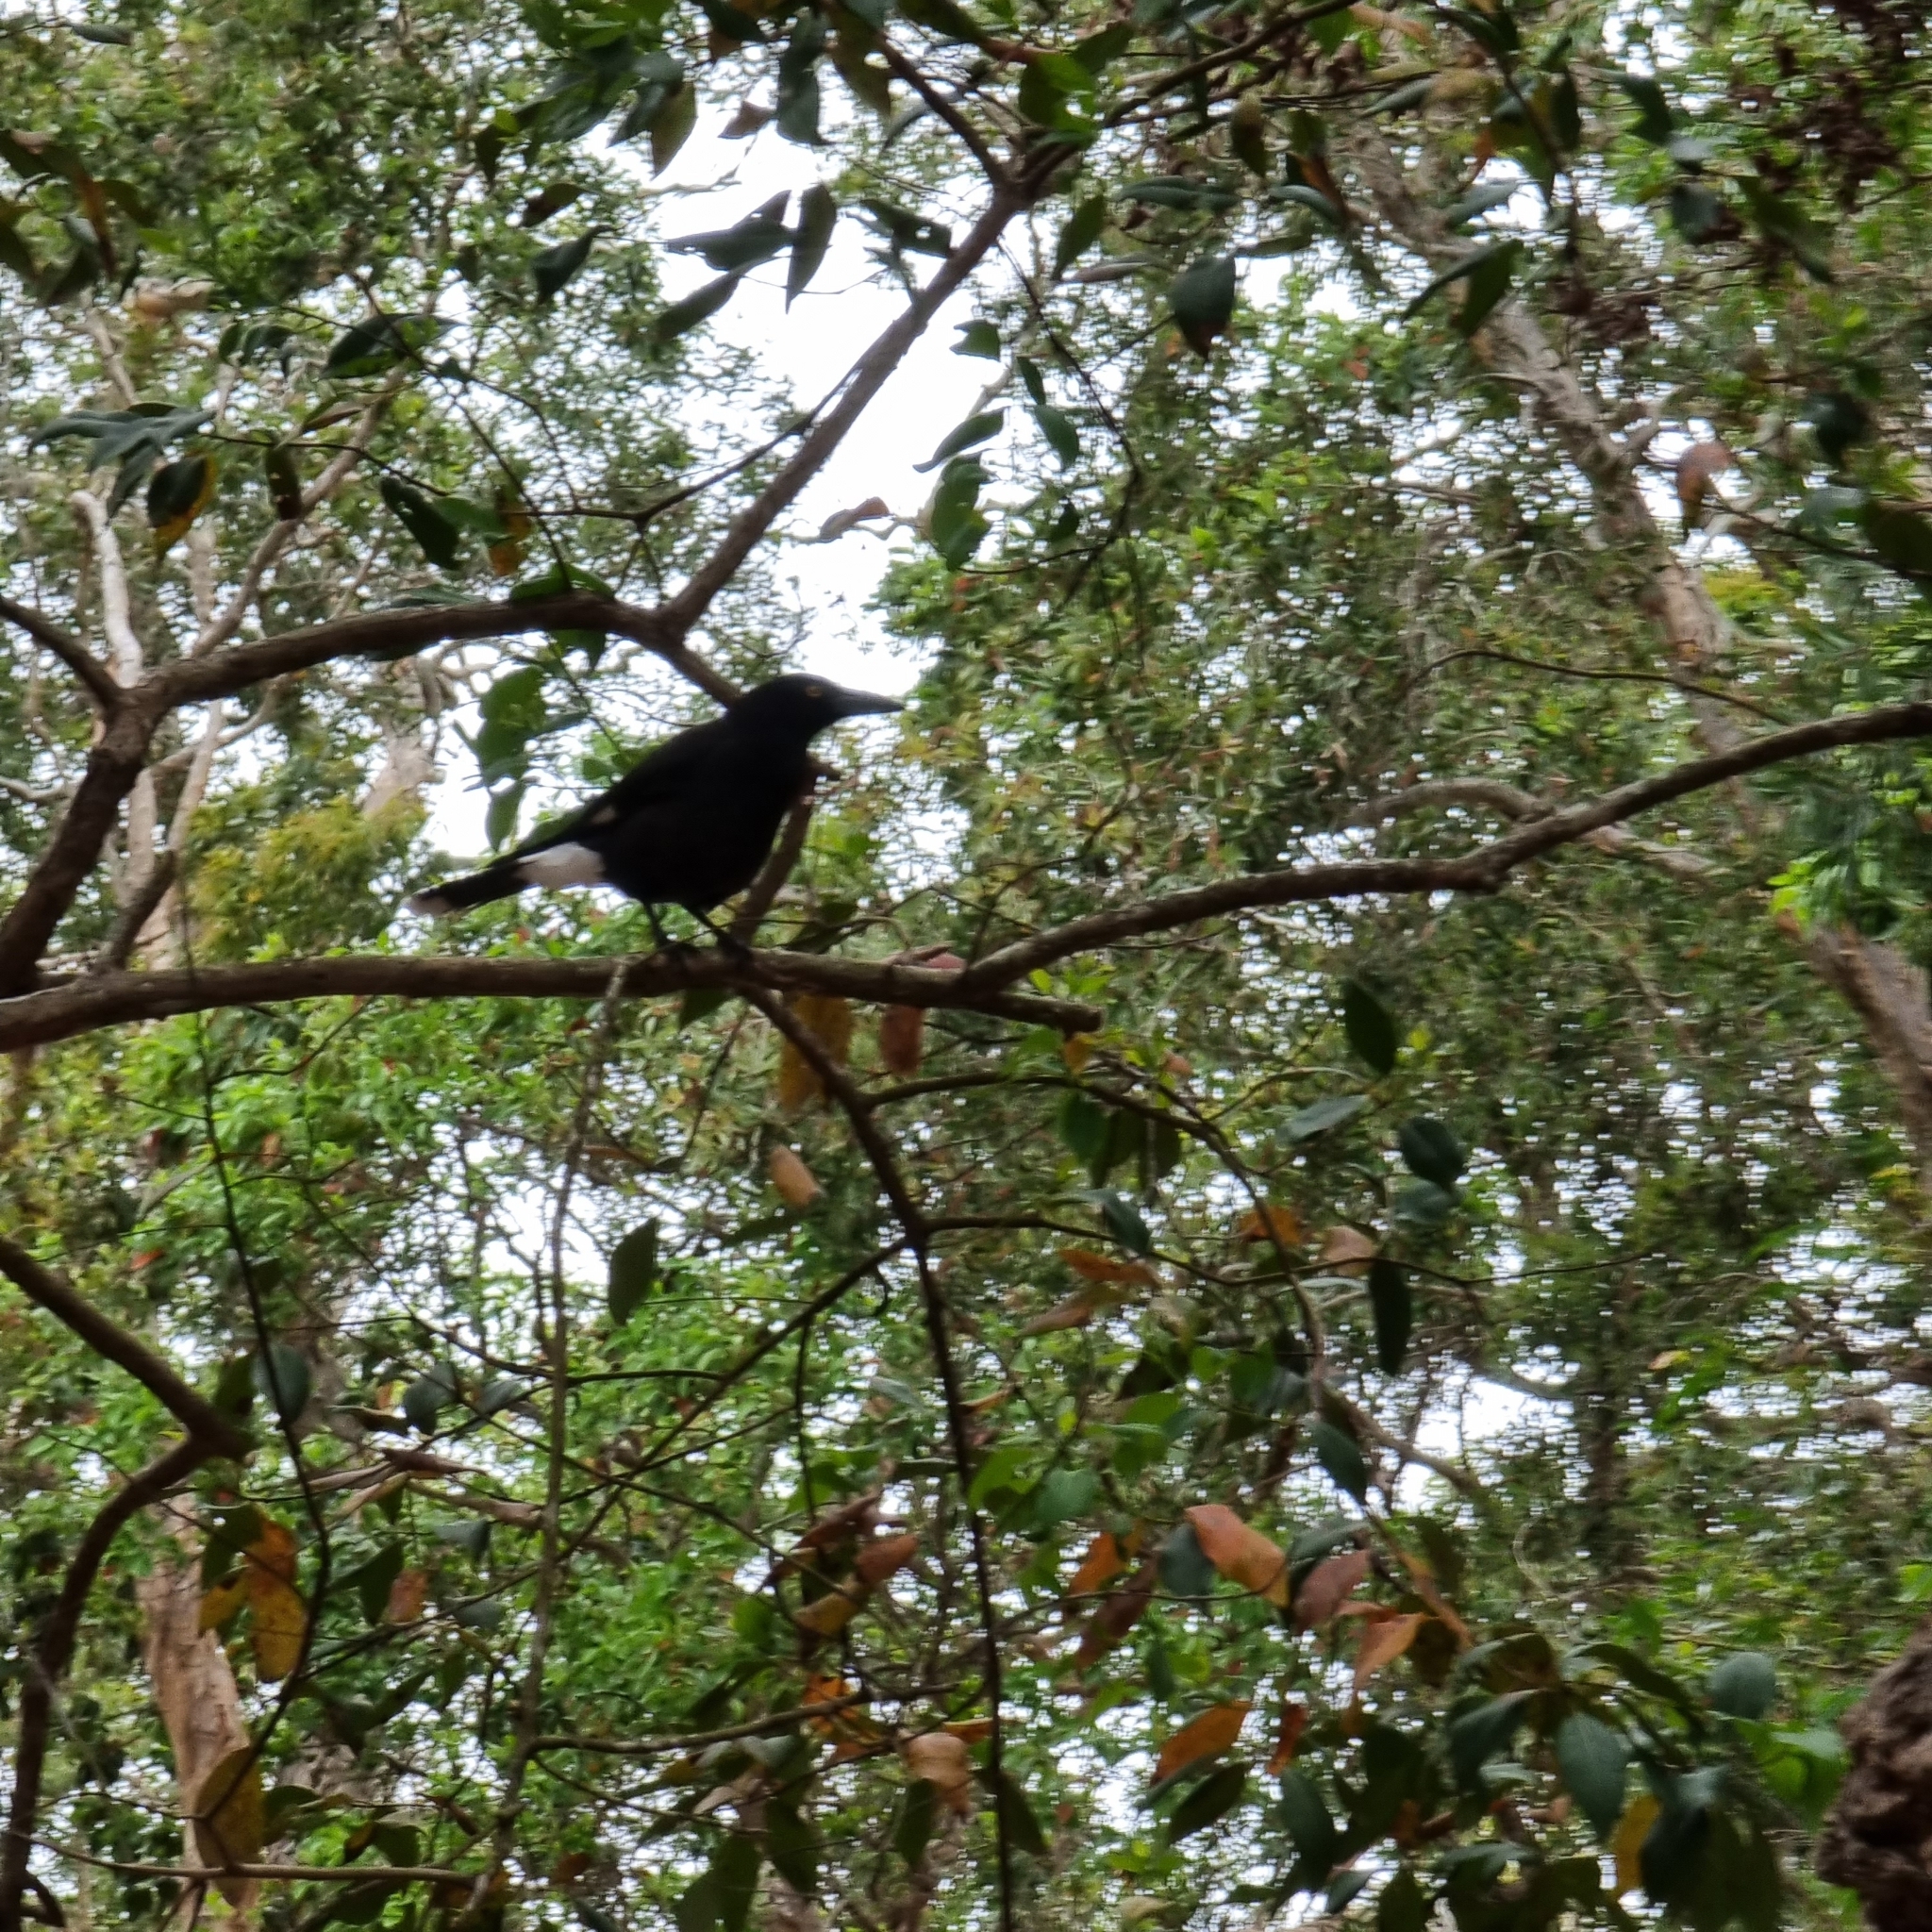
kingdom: Animalia
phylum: Chordata
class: Aves
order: Passeriformes
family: Cracticidae
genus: Strepera
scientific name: Strepera graculina
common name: Pied currawong
